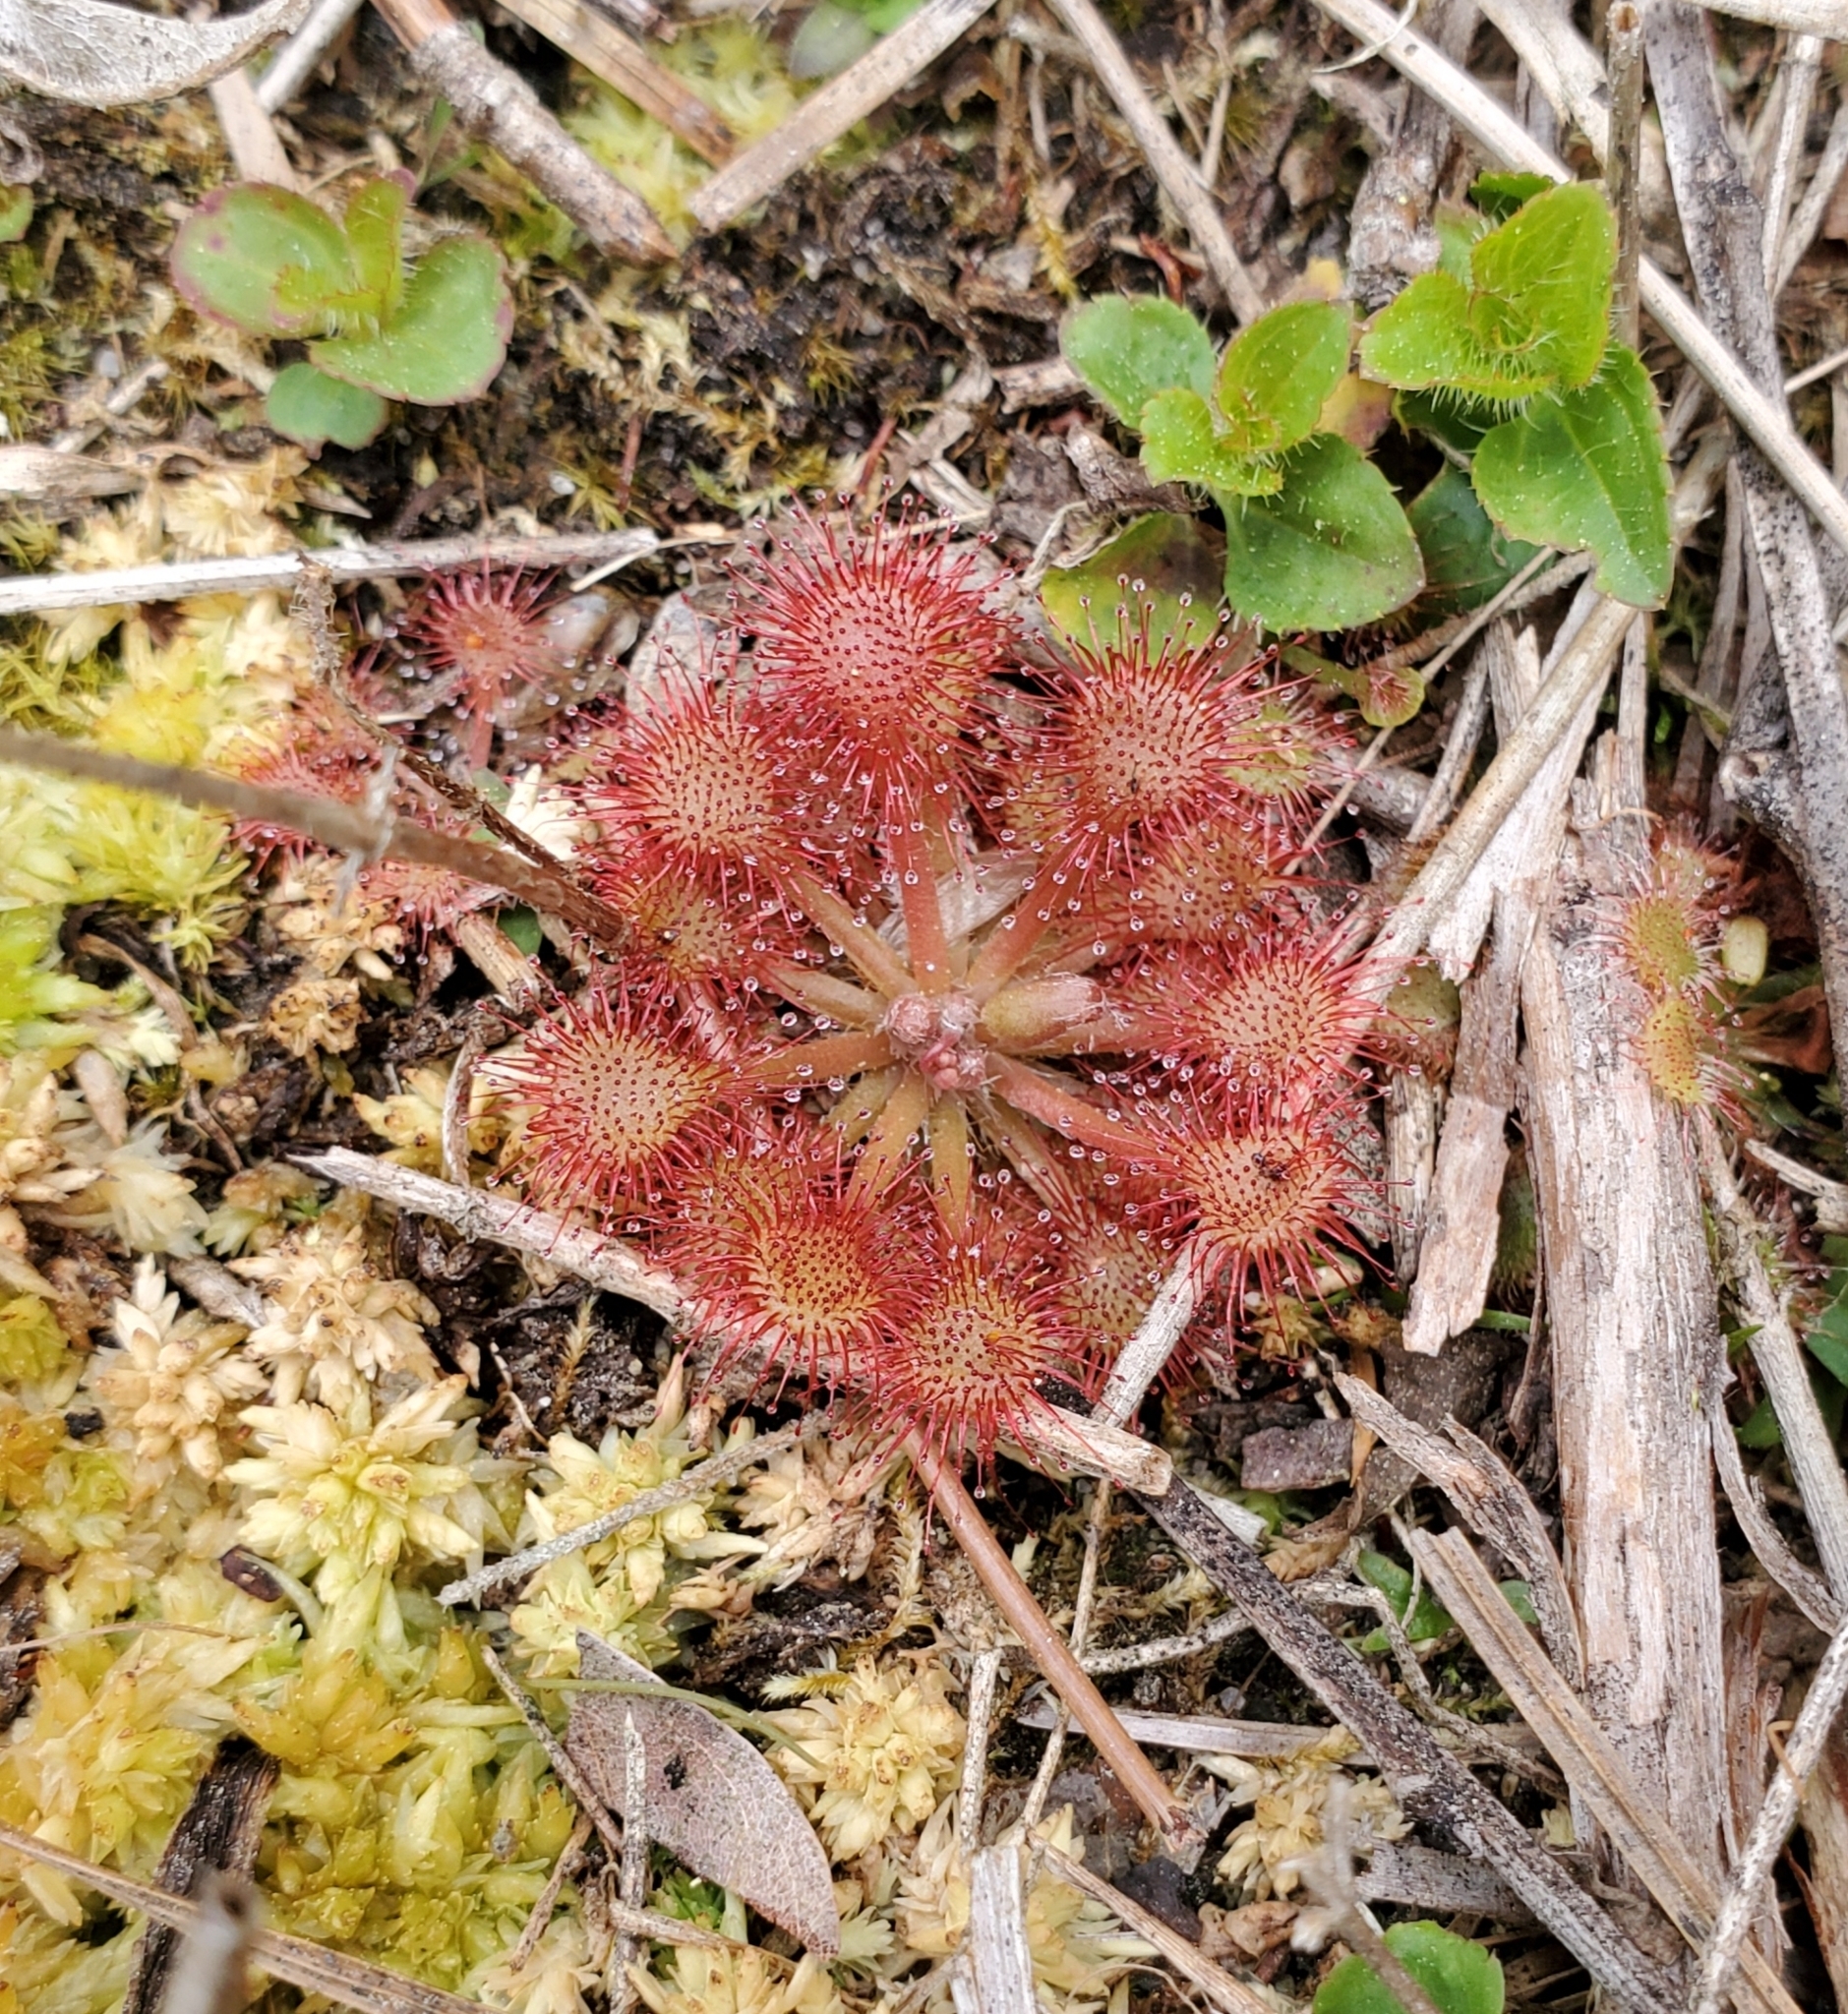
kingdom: Plantae
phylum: Tracheophyta
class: Magnoliopsida
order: Caryophyllales
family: Droseraceae
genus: Drosera
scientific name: Drosera capillaris
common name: Pink sundew
